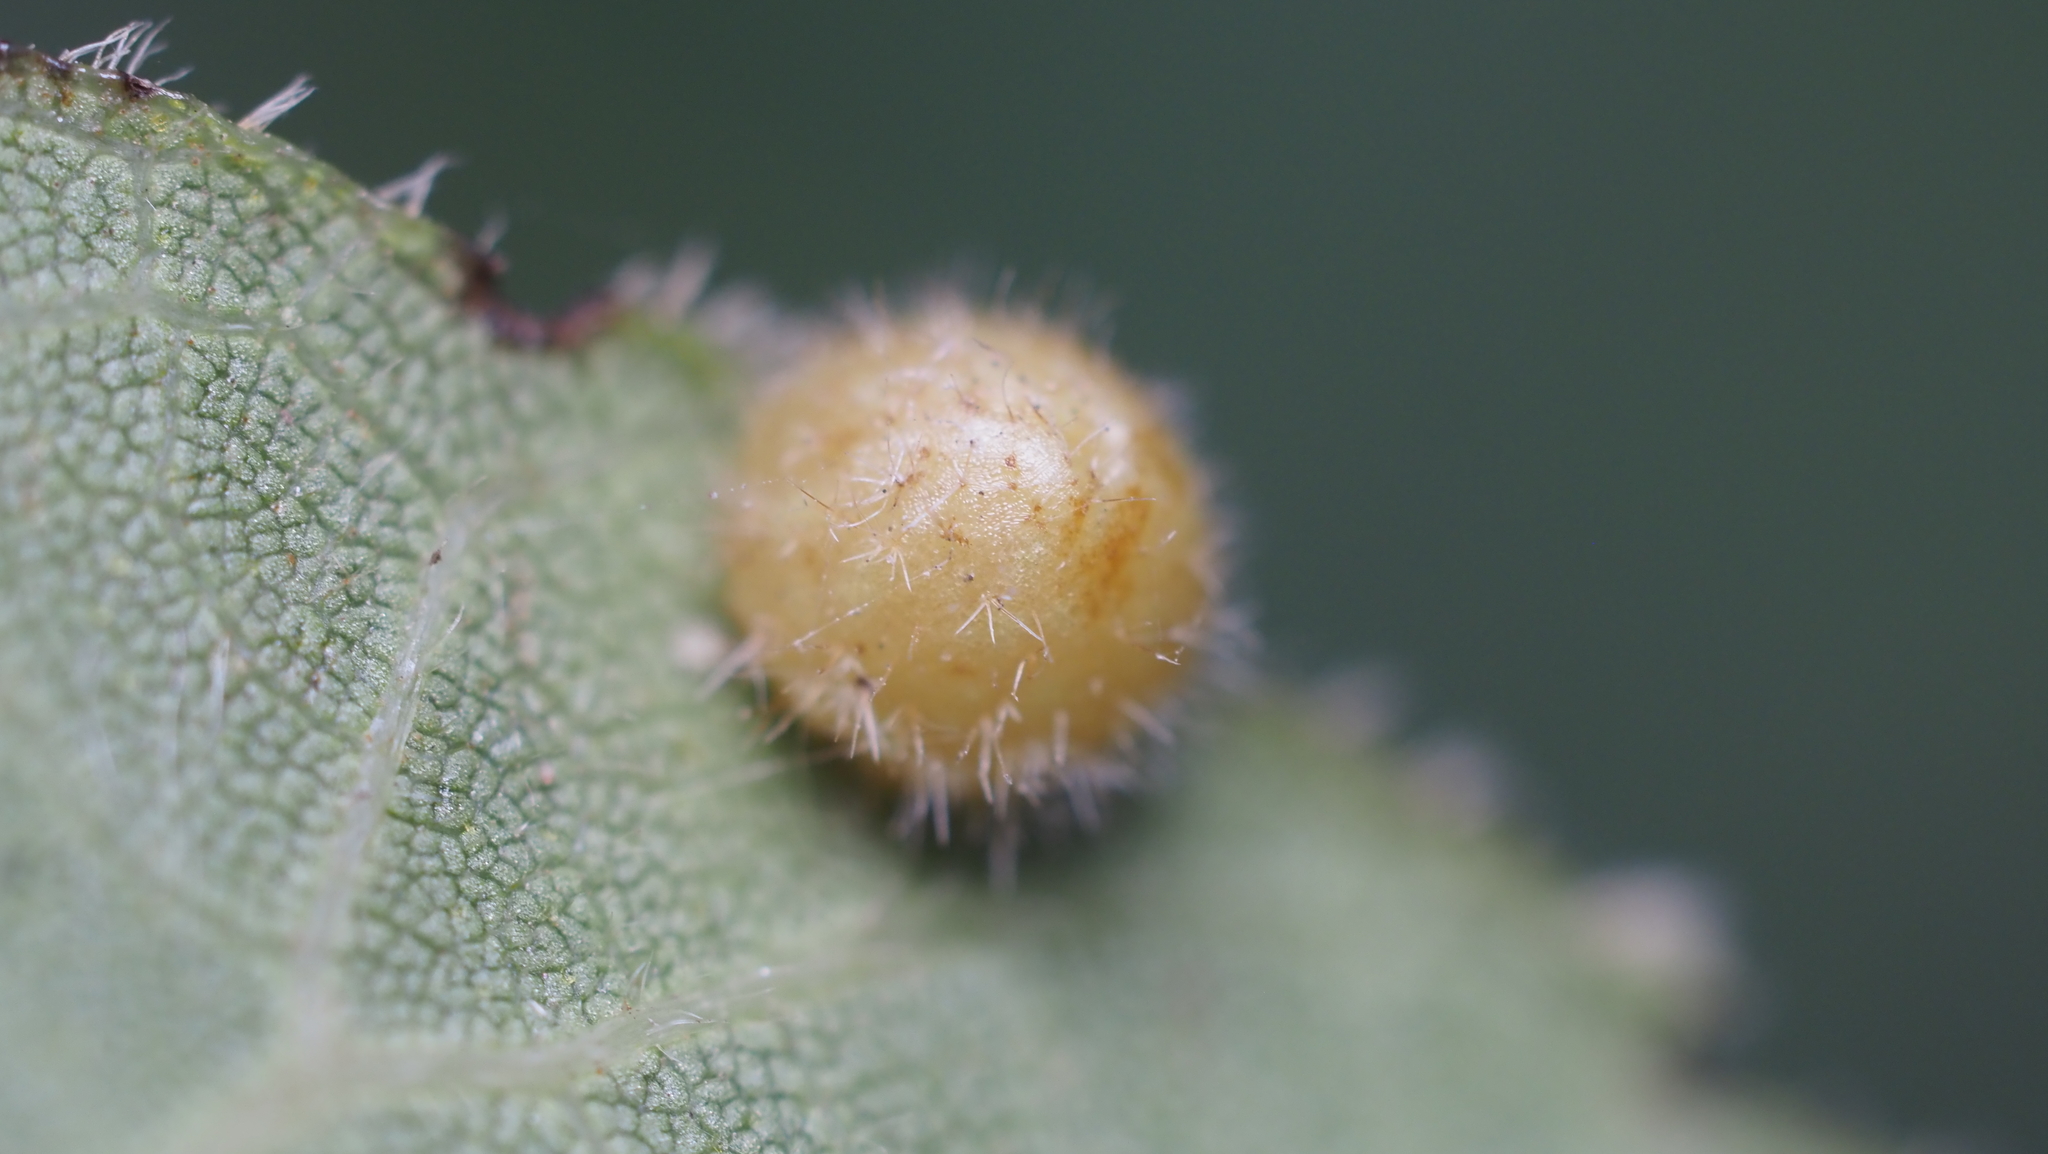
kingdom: Animalia
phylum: Arthropoda
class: Insecta
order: Diptera
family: Cecidomyiidae
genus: Caryomyia
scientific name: Caryomyia thompsoni
